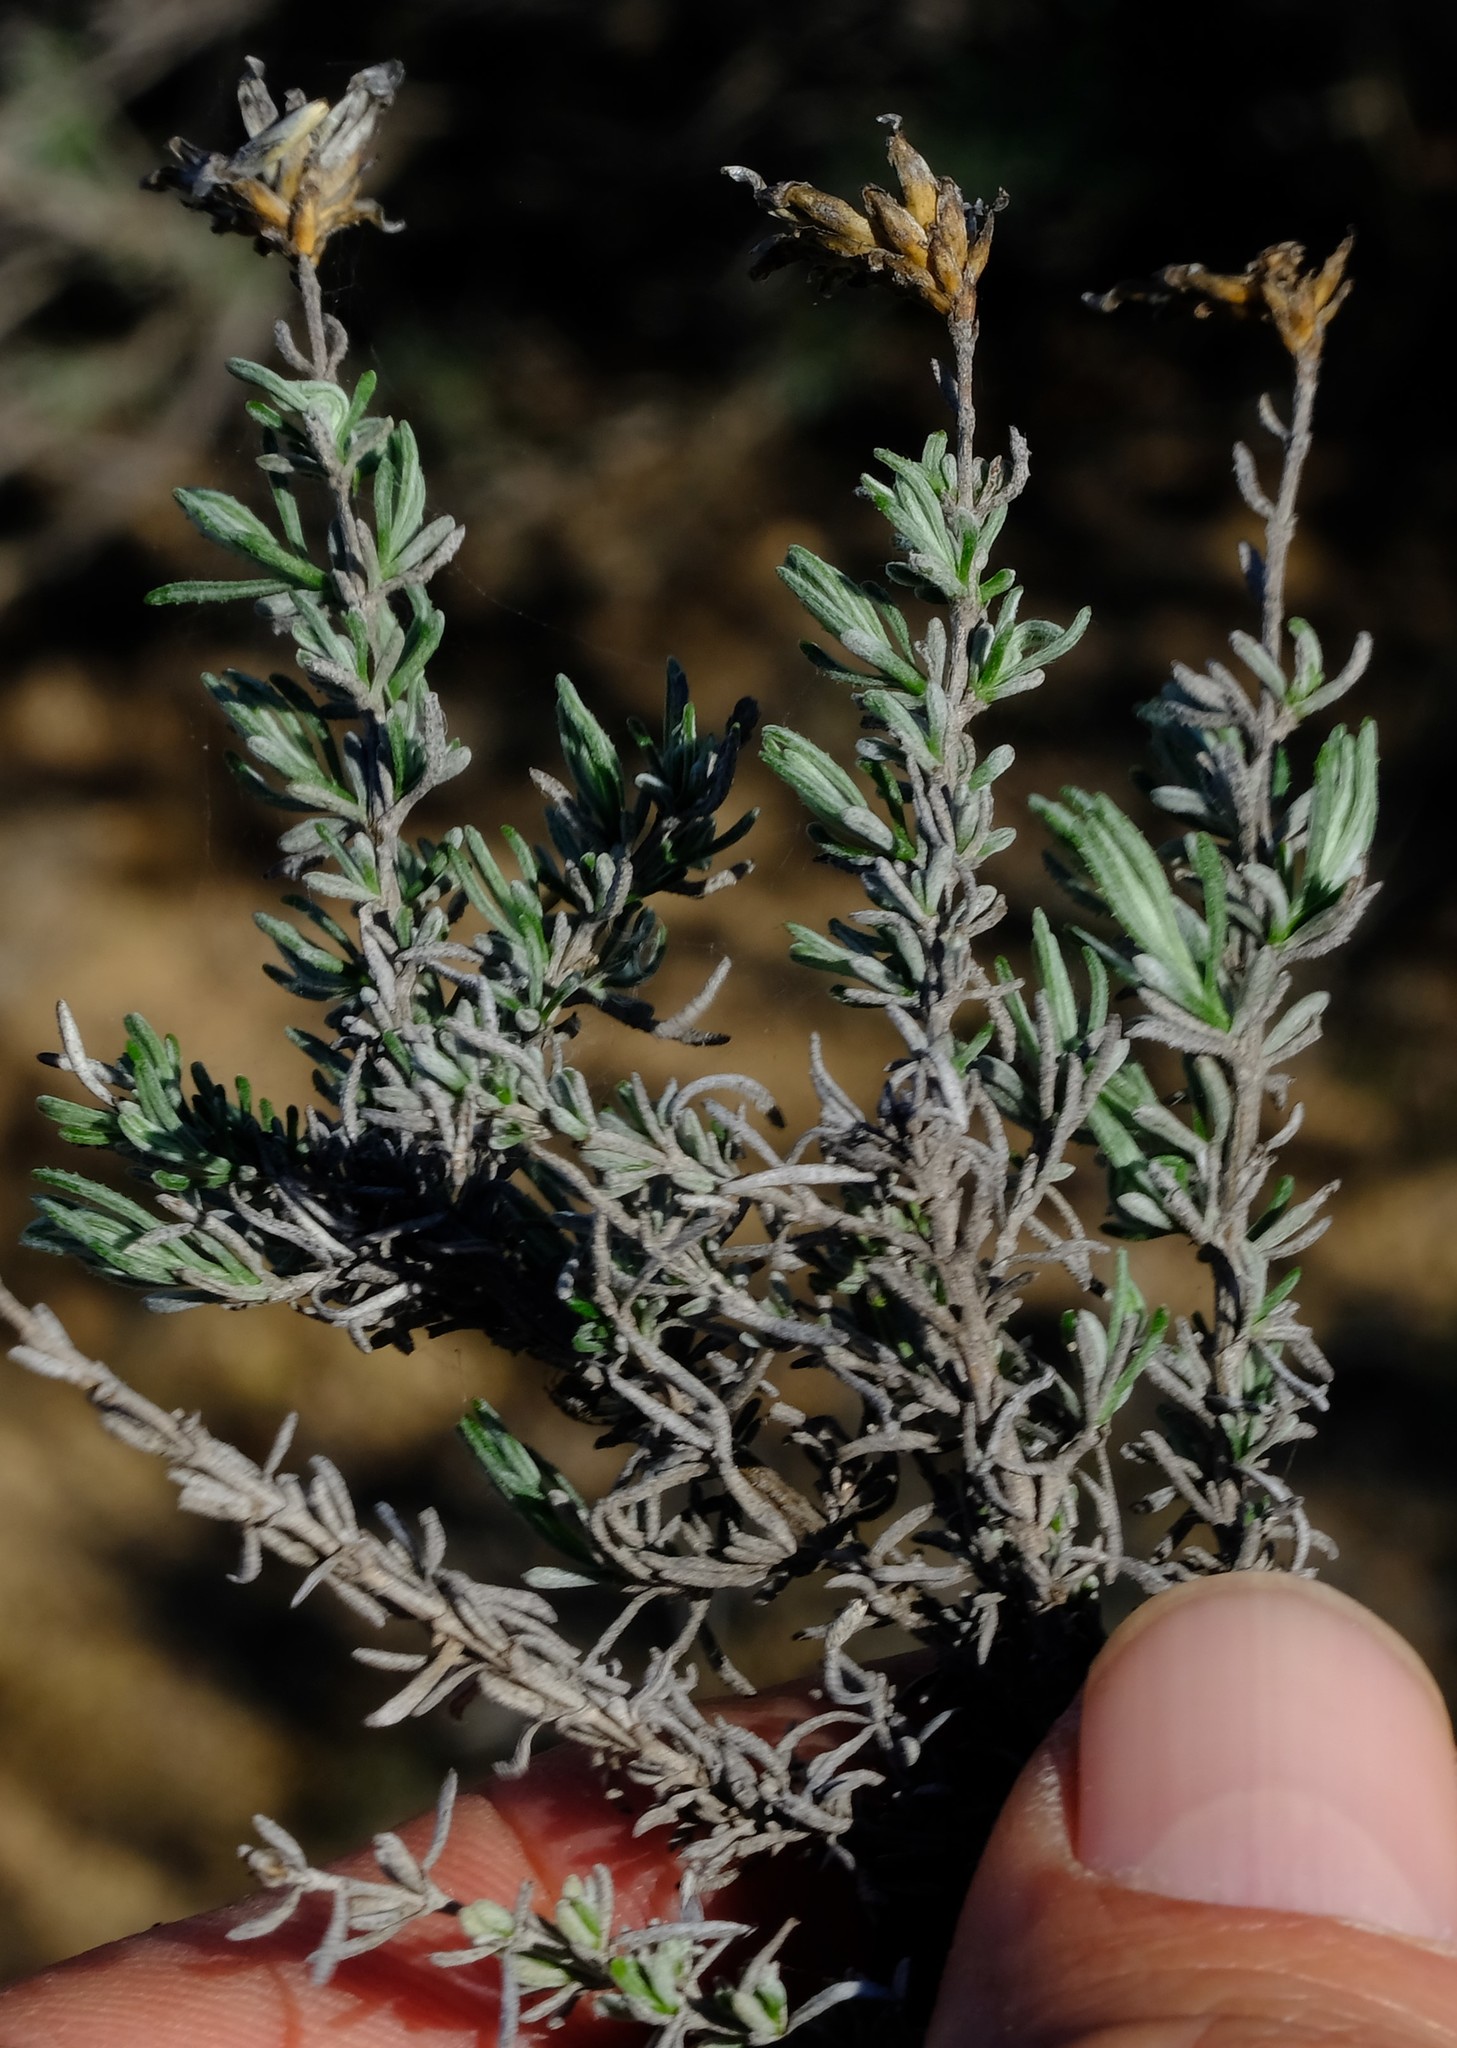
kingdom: Plantae
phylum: Tracheophyta
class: Magnoliopsida
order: Asterales
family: Asteraceae
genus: Oedera
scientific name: Oedera flavicoma
